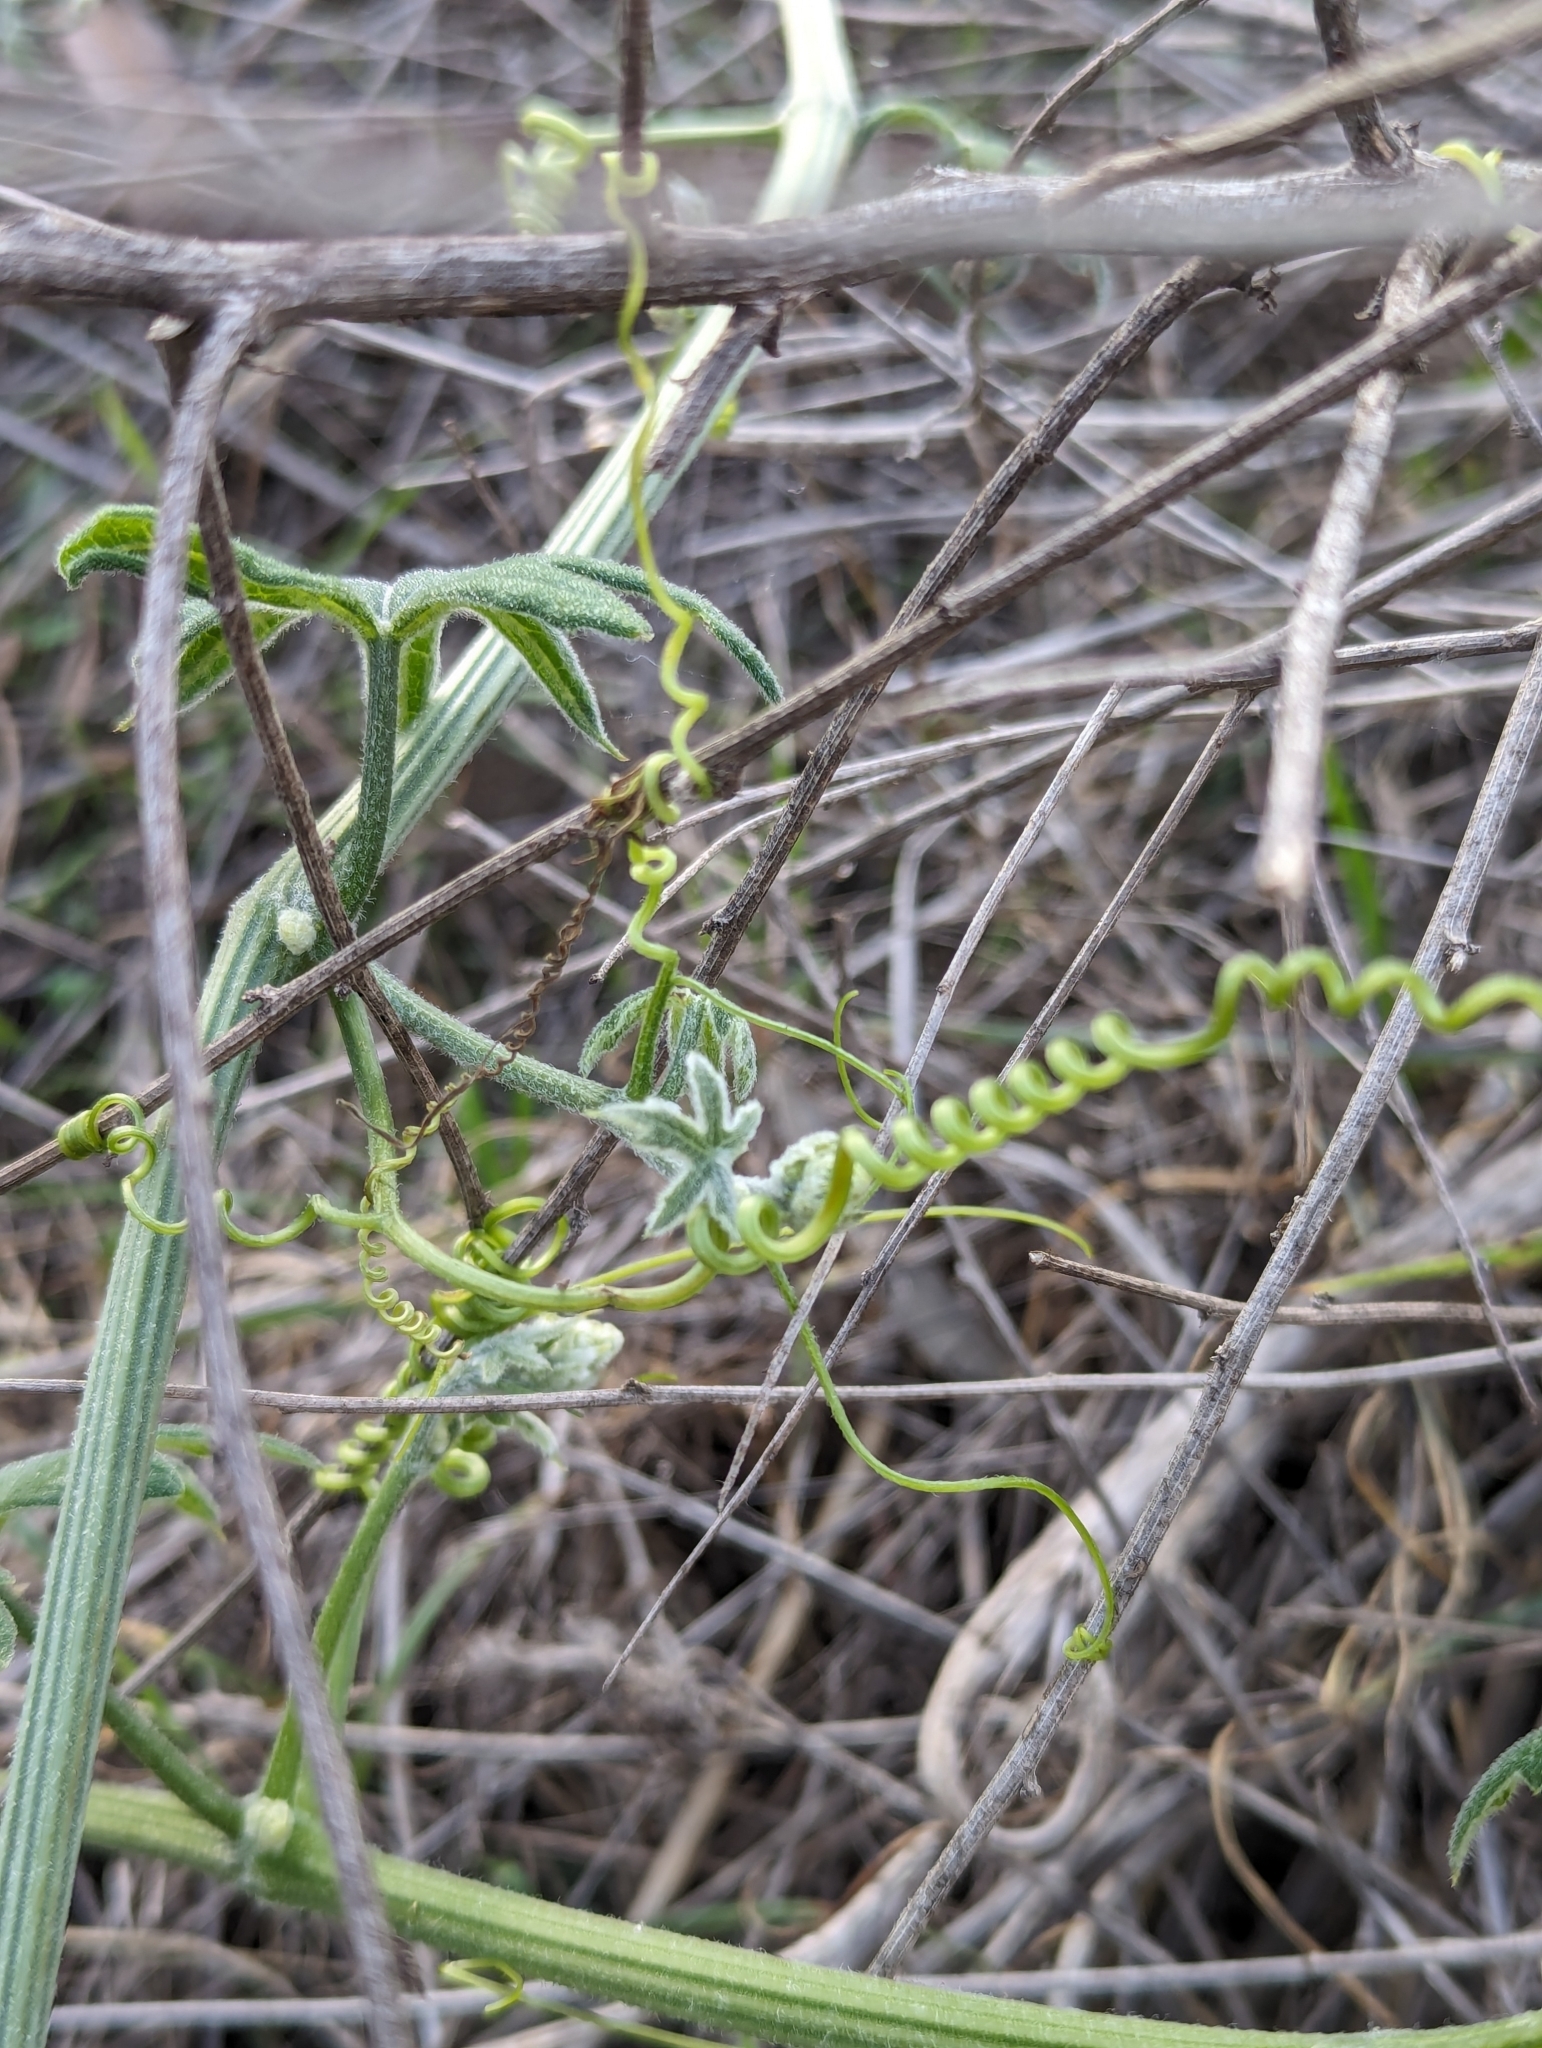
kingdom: Plantae
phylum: Tracheophyta
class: Magnoliopsida
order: Cucurbitales
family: Cucurbitaceae
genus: Marah
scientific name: Marah macrocarpa
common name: Cucamonga manroot
